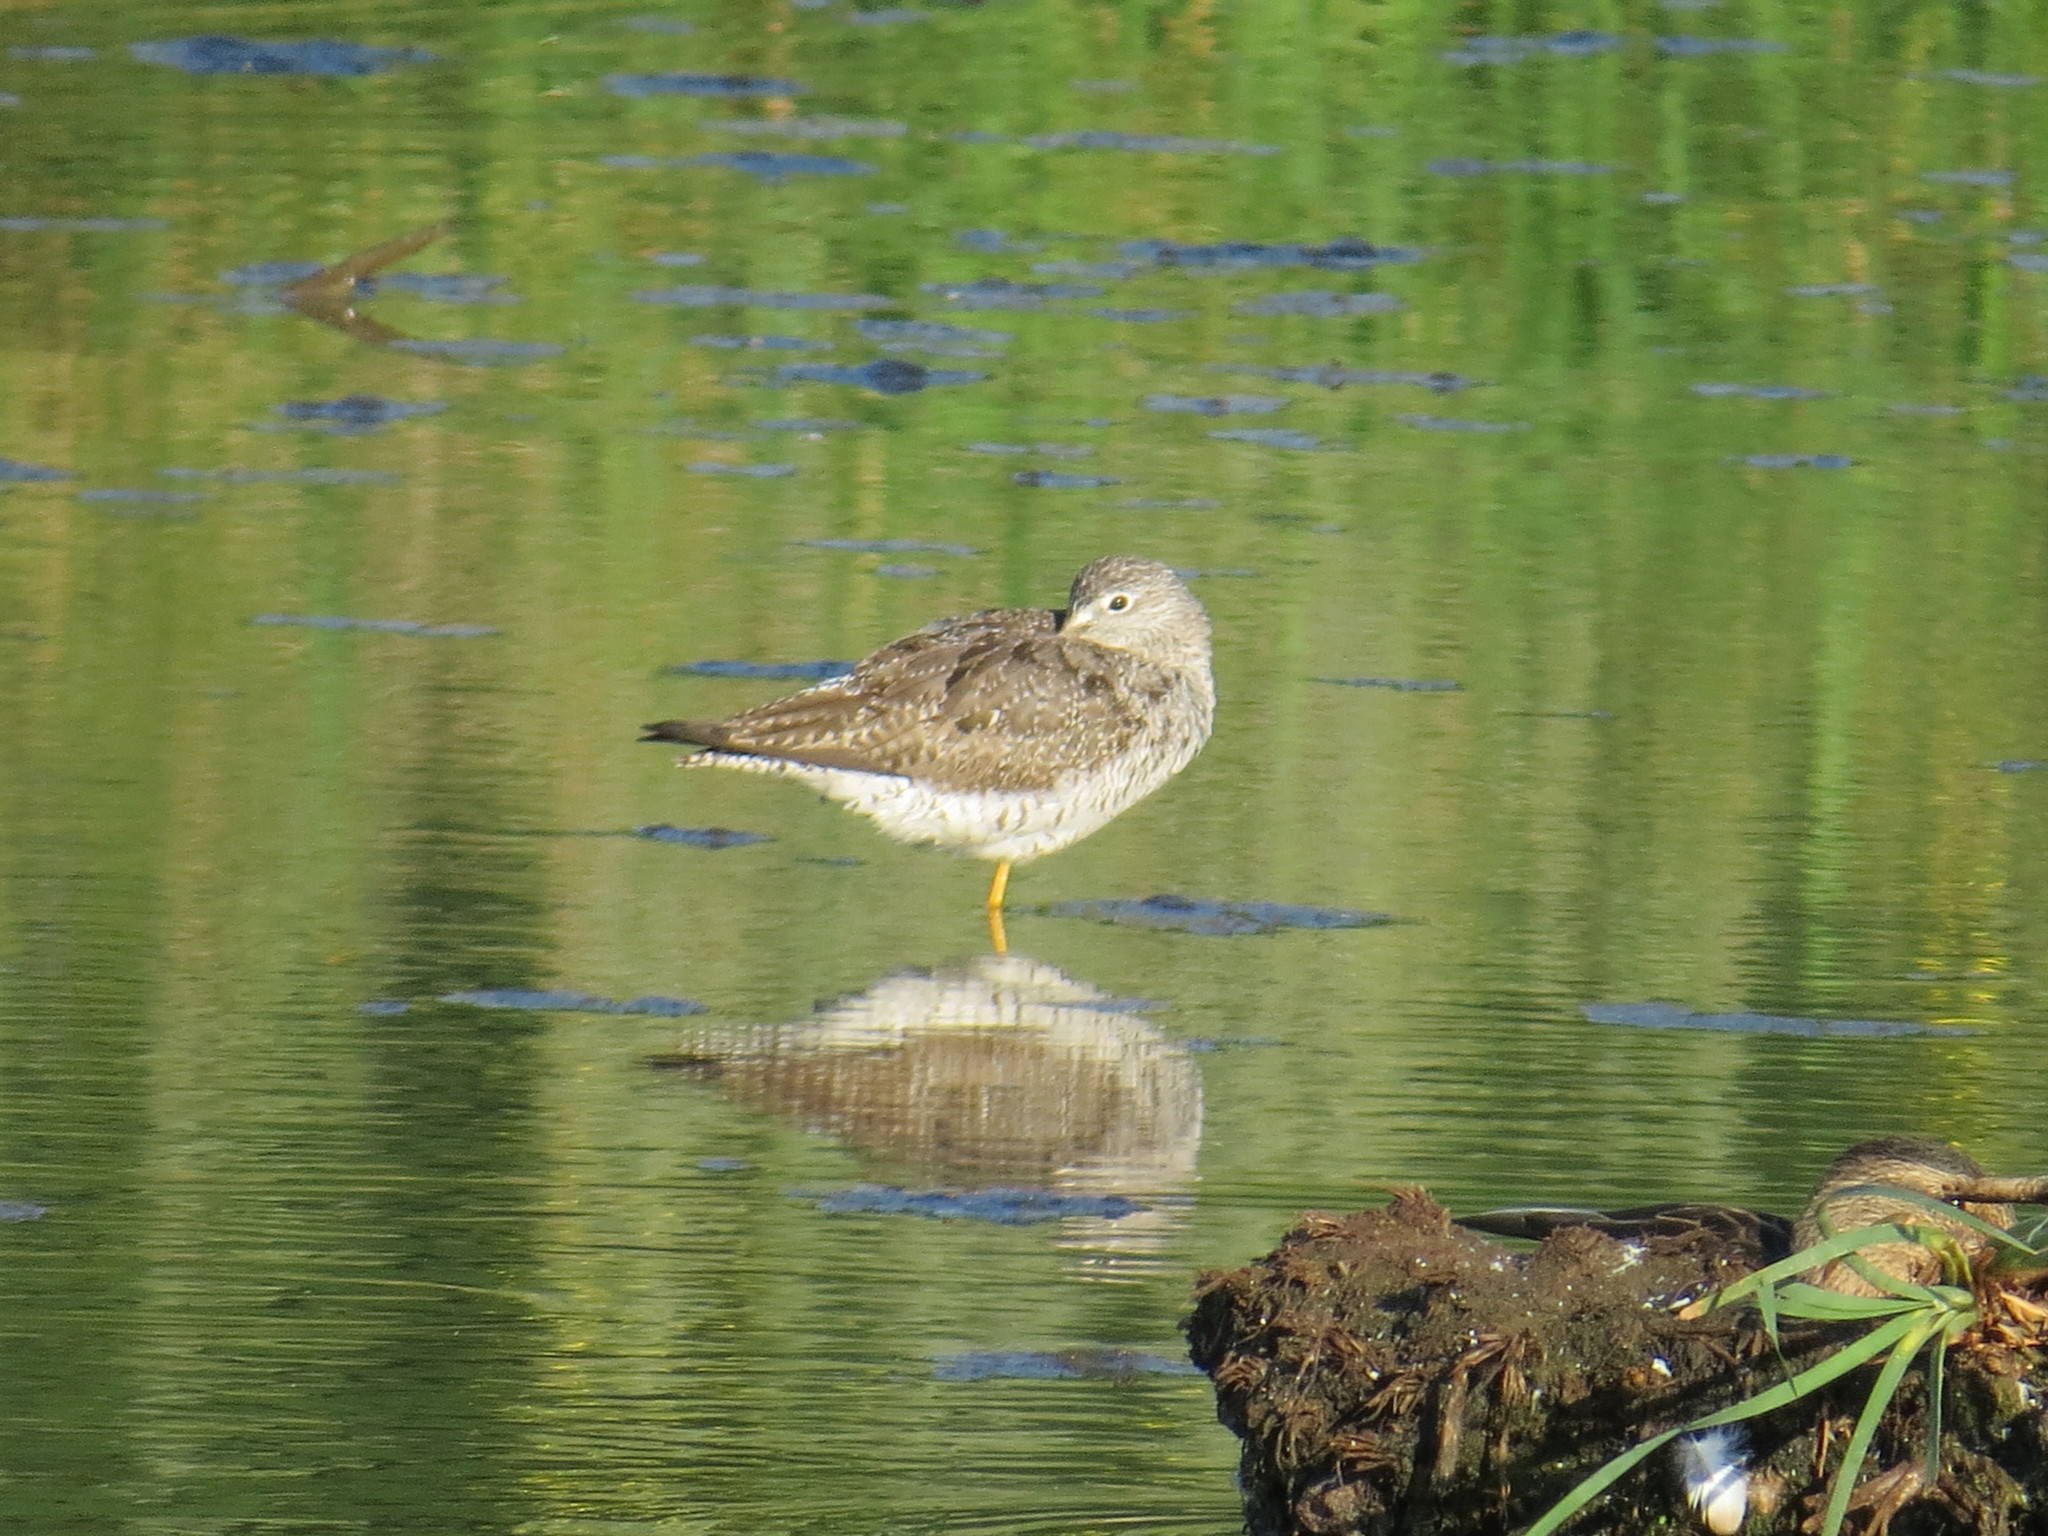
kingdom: Animalia
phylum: Chordata
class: Aves
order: Charadriiformes
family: Scolopacidae
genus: Tringa
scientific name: Tringa melanoleuca
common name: Greater yellowlegs
